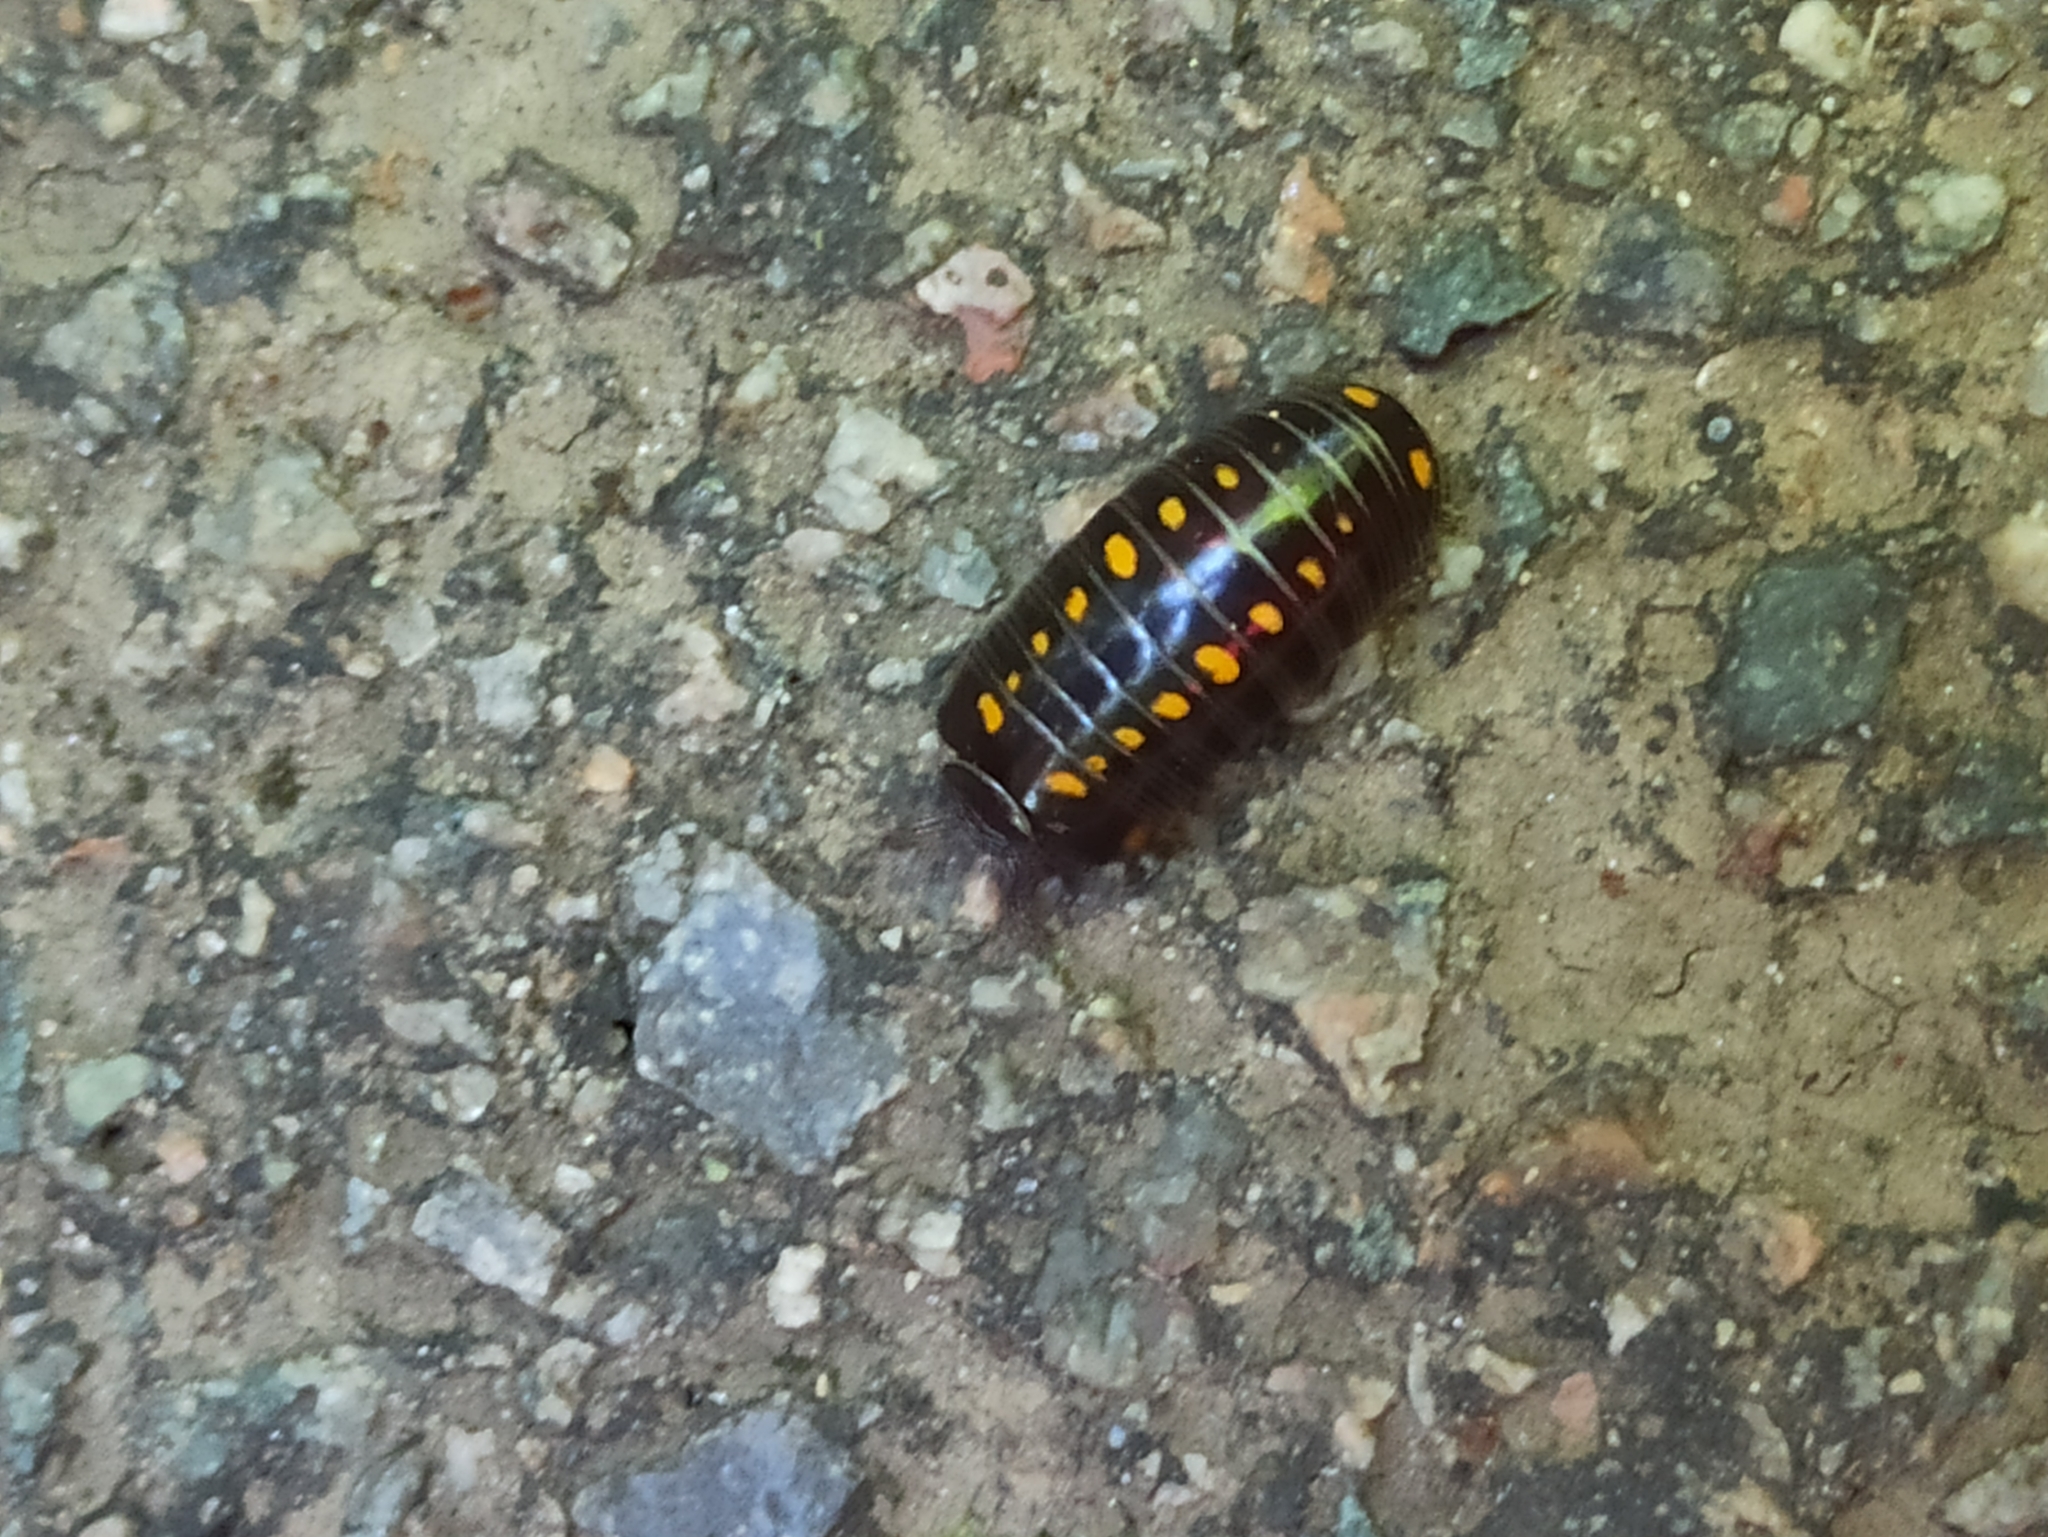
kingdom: Animalia
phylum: Arthropoda
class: Diplopoda
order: Glomerida
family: Glomeridae
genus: Glomeris
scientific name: Glomeris pustulata
